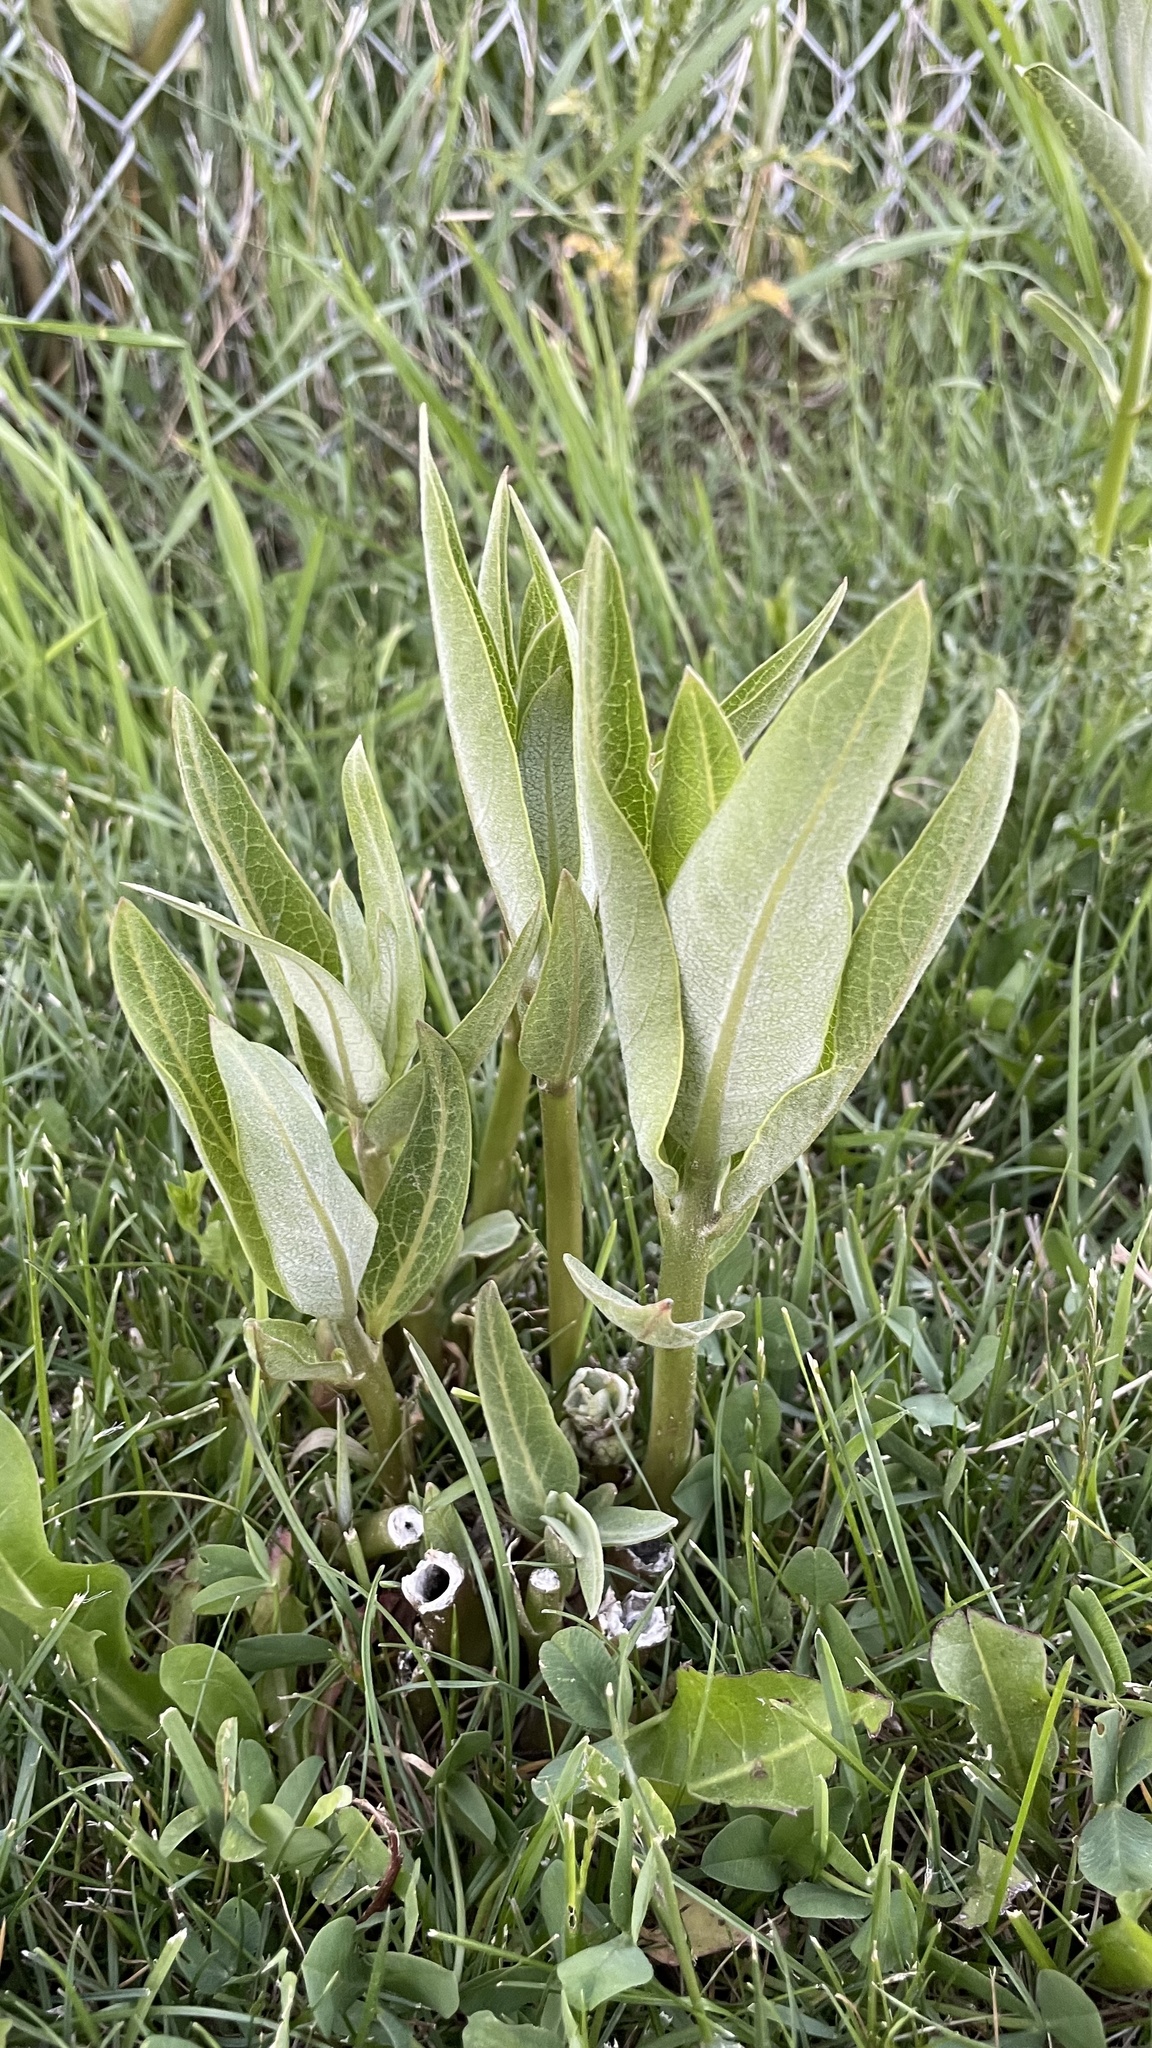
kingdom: Plantae
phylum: Tracheophyta
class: Magnoliopsida
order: Gentianales
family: Apocynaceae
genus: Asclepias
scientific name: Asclepias speciosa
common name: Showy milkweed
